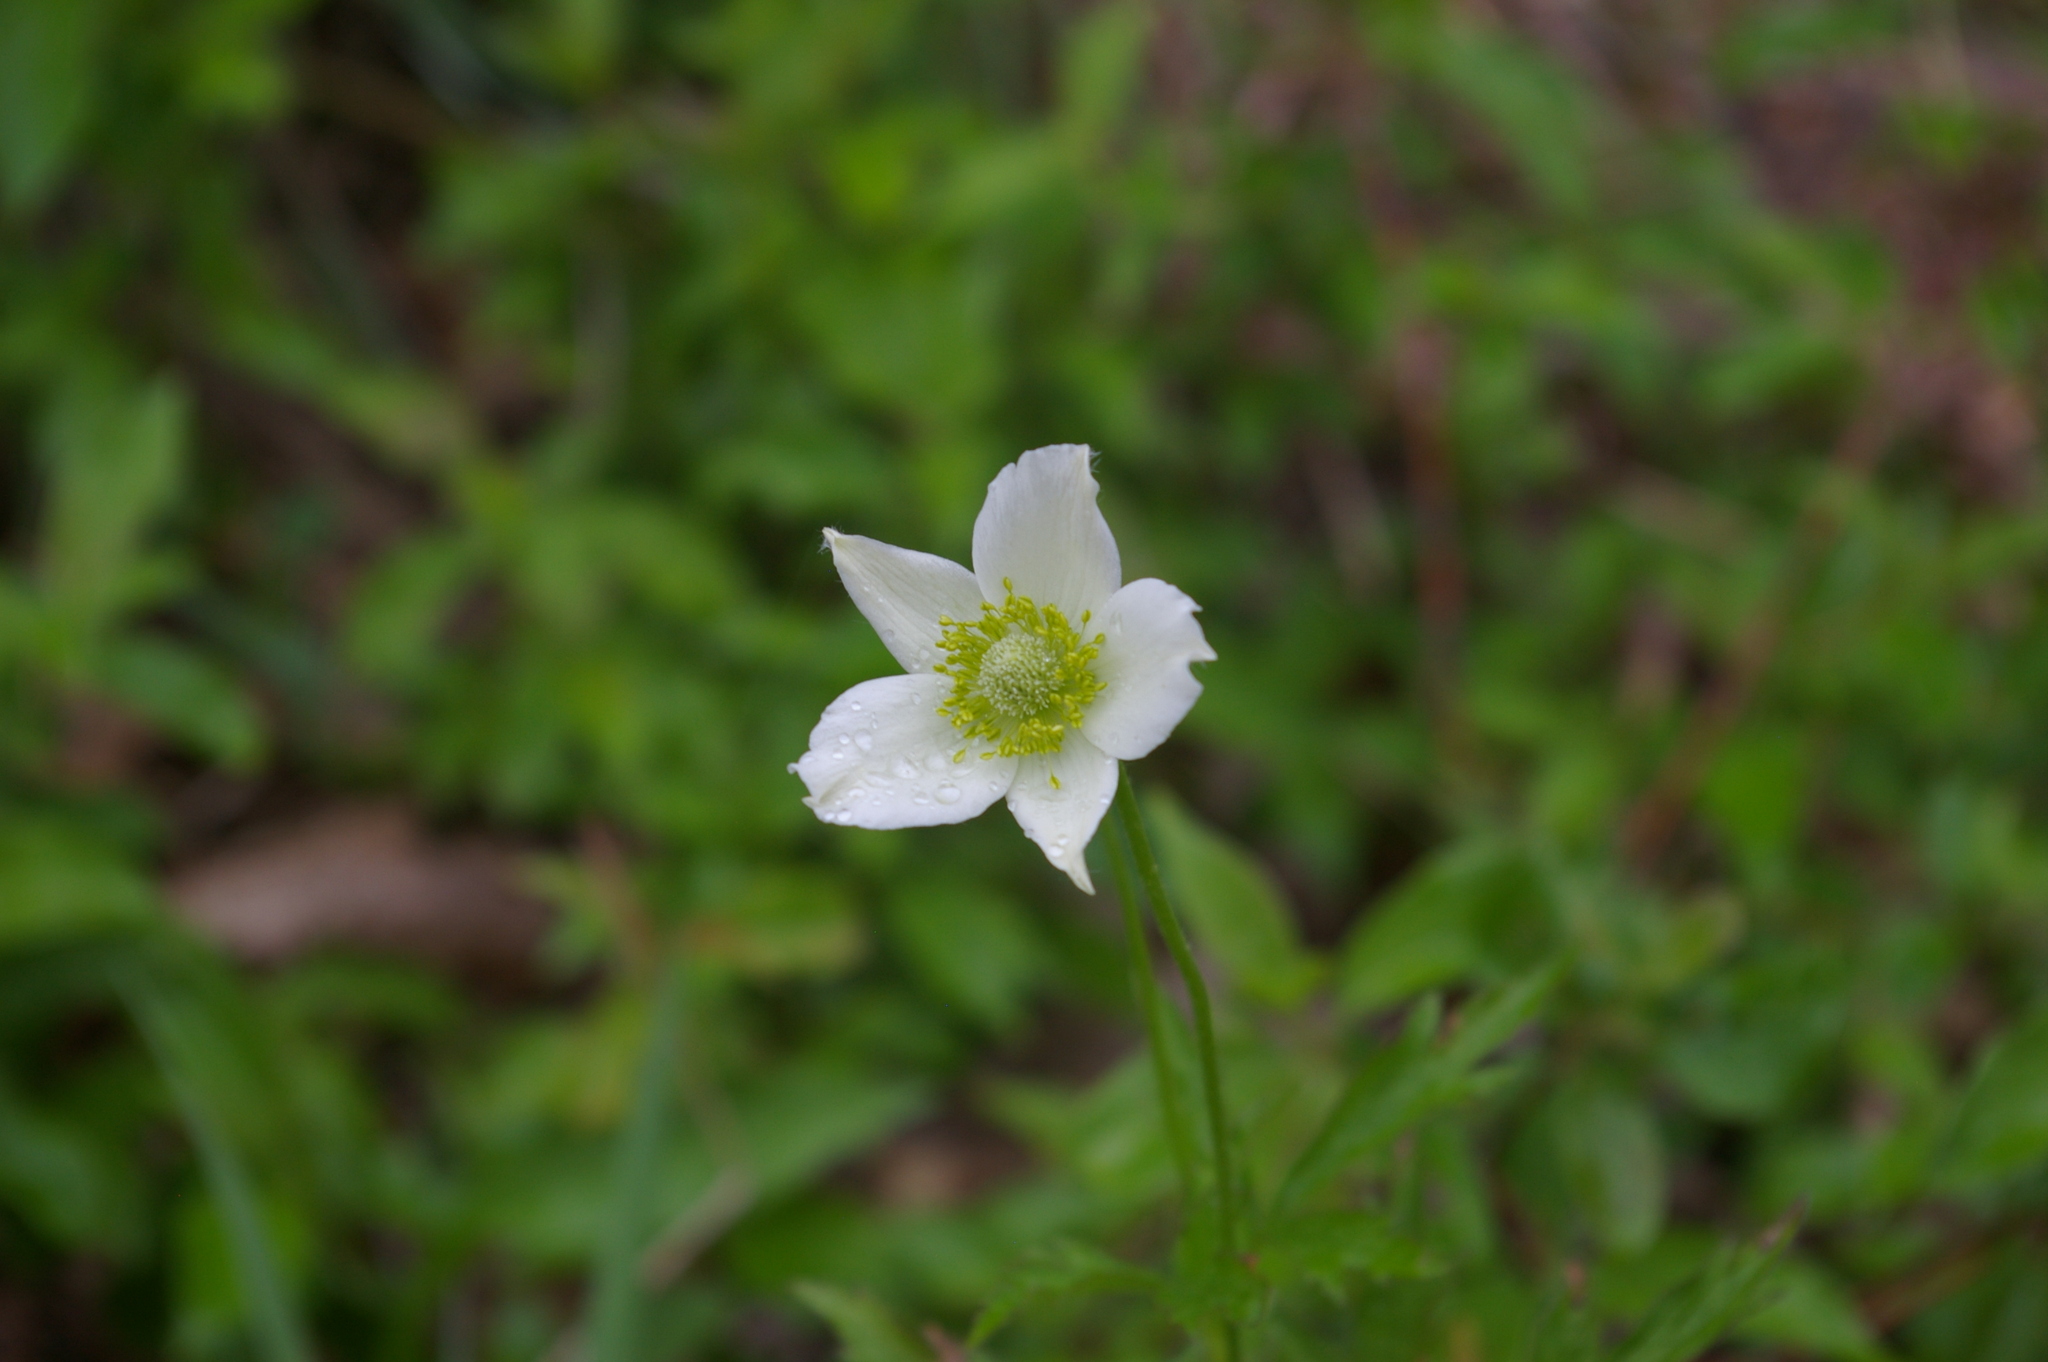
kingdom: Plantae
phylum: Tracheophyta
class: Magnoliopsida
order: Ranunculales
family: Ranunculaceae
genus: Anemone
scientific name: Anemone virginiana
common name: Tall anemone
